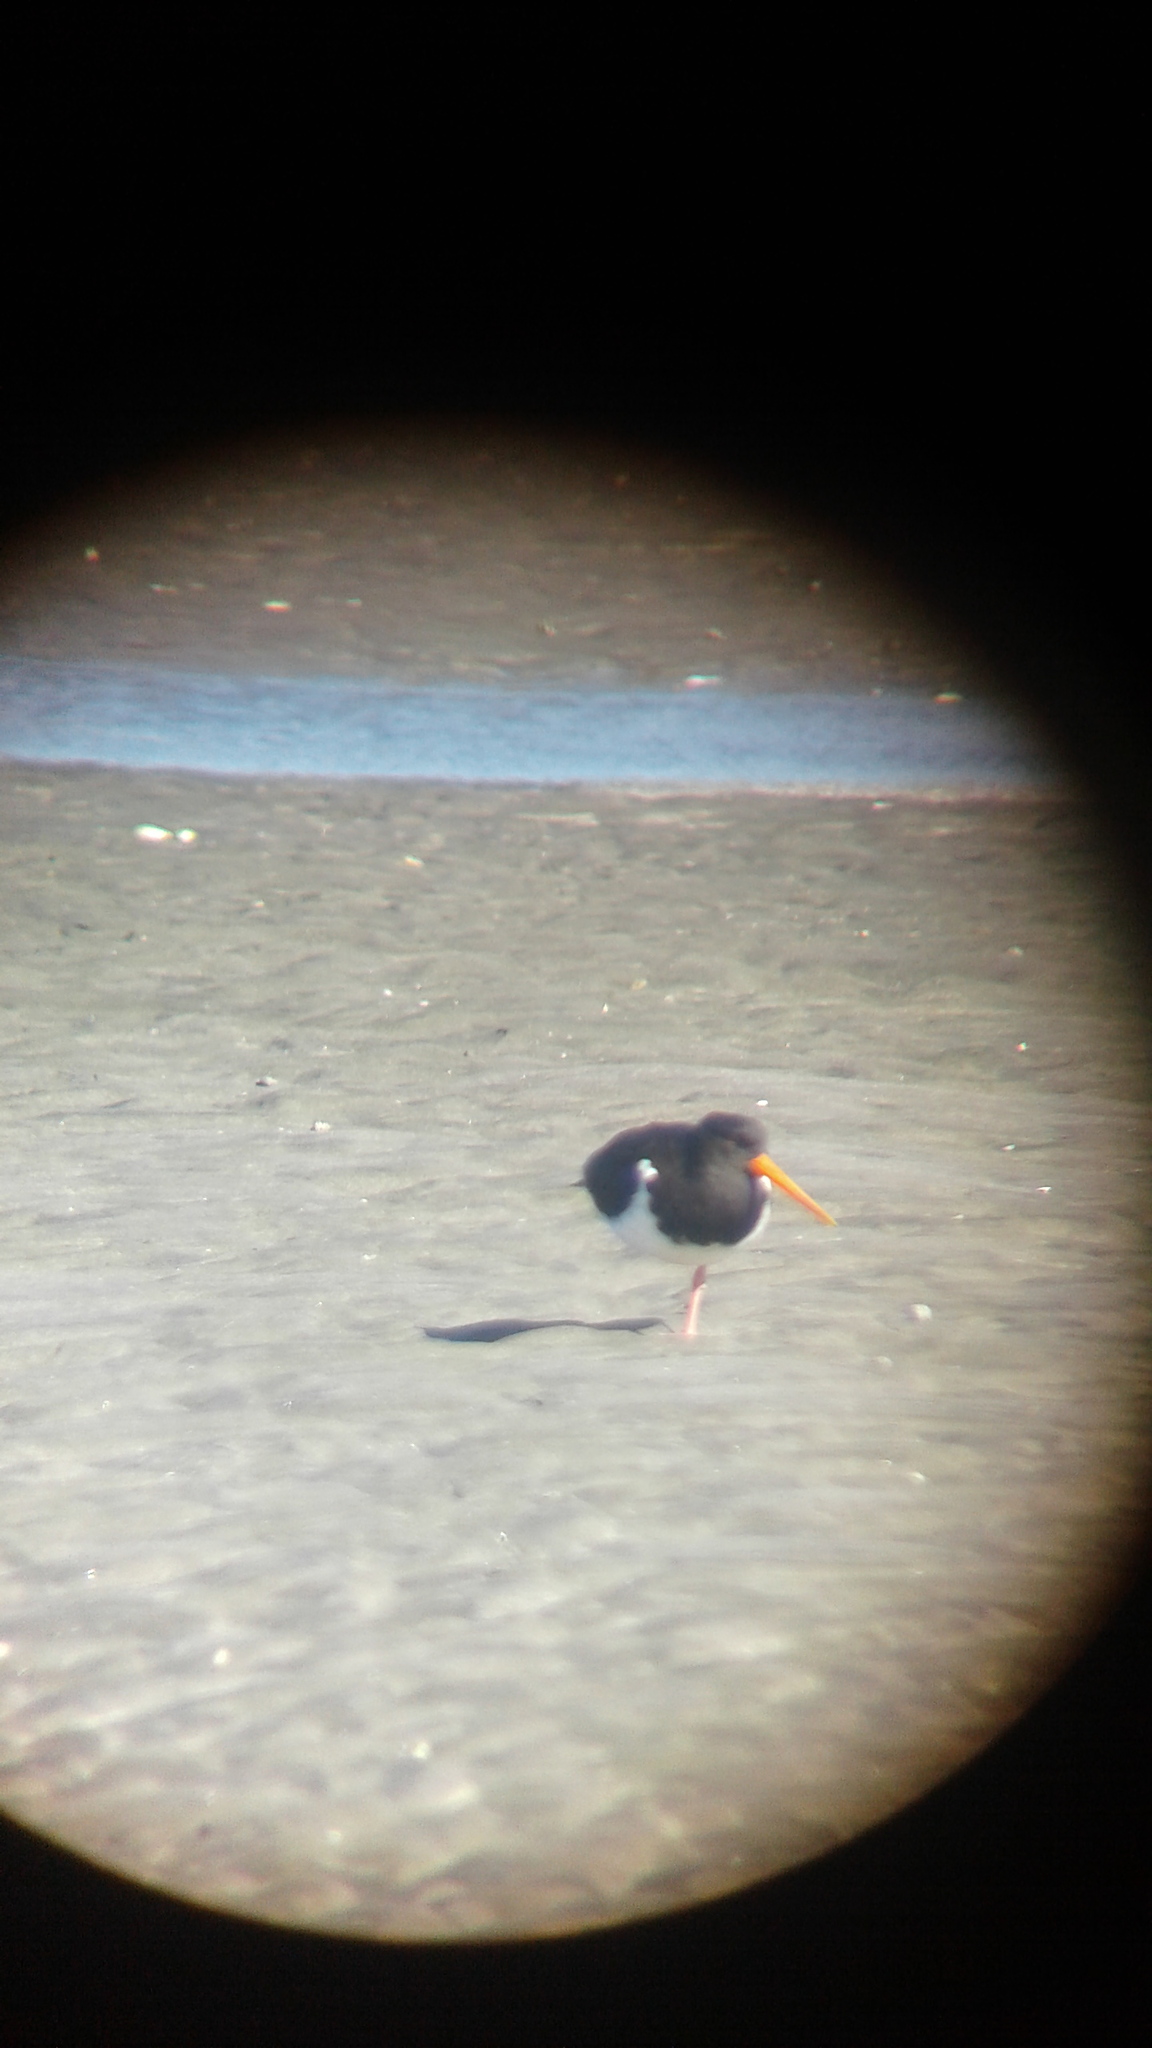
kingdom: Animalia
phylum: Chordata
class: Aves
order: Charadriiformes
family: Haematopodidae
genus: Haematopus
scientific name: Haematopus finschi
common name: South island oystercatcher
